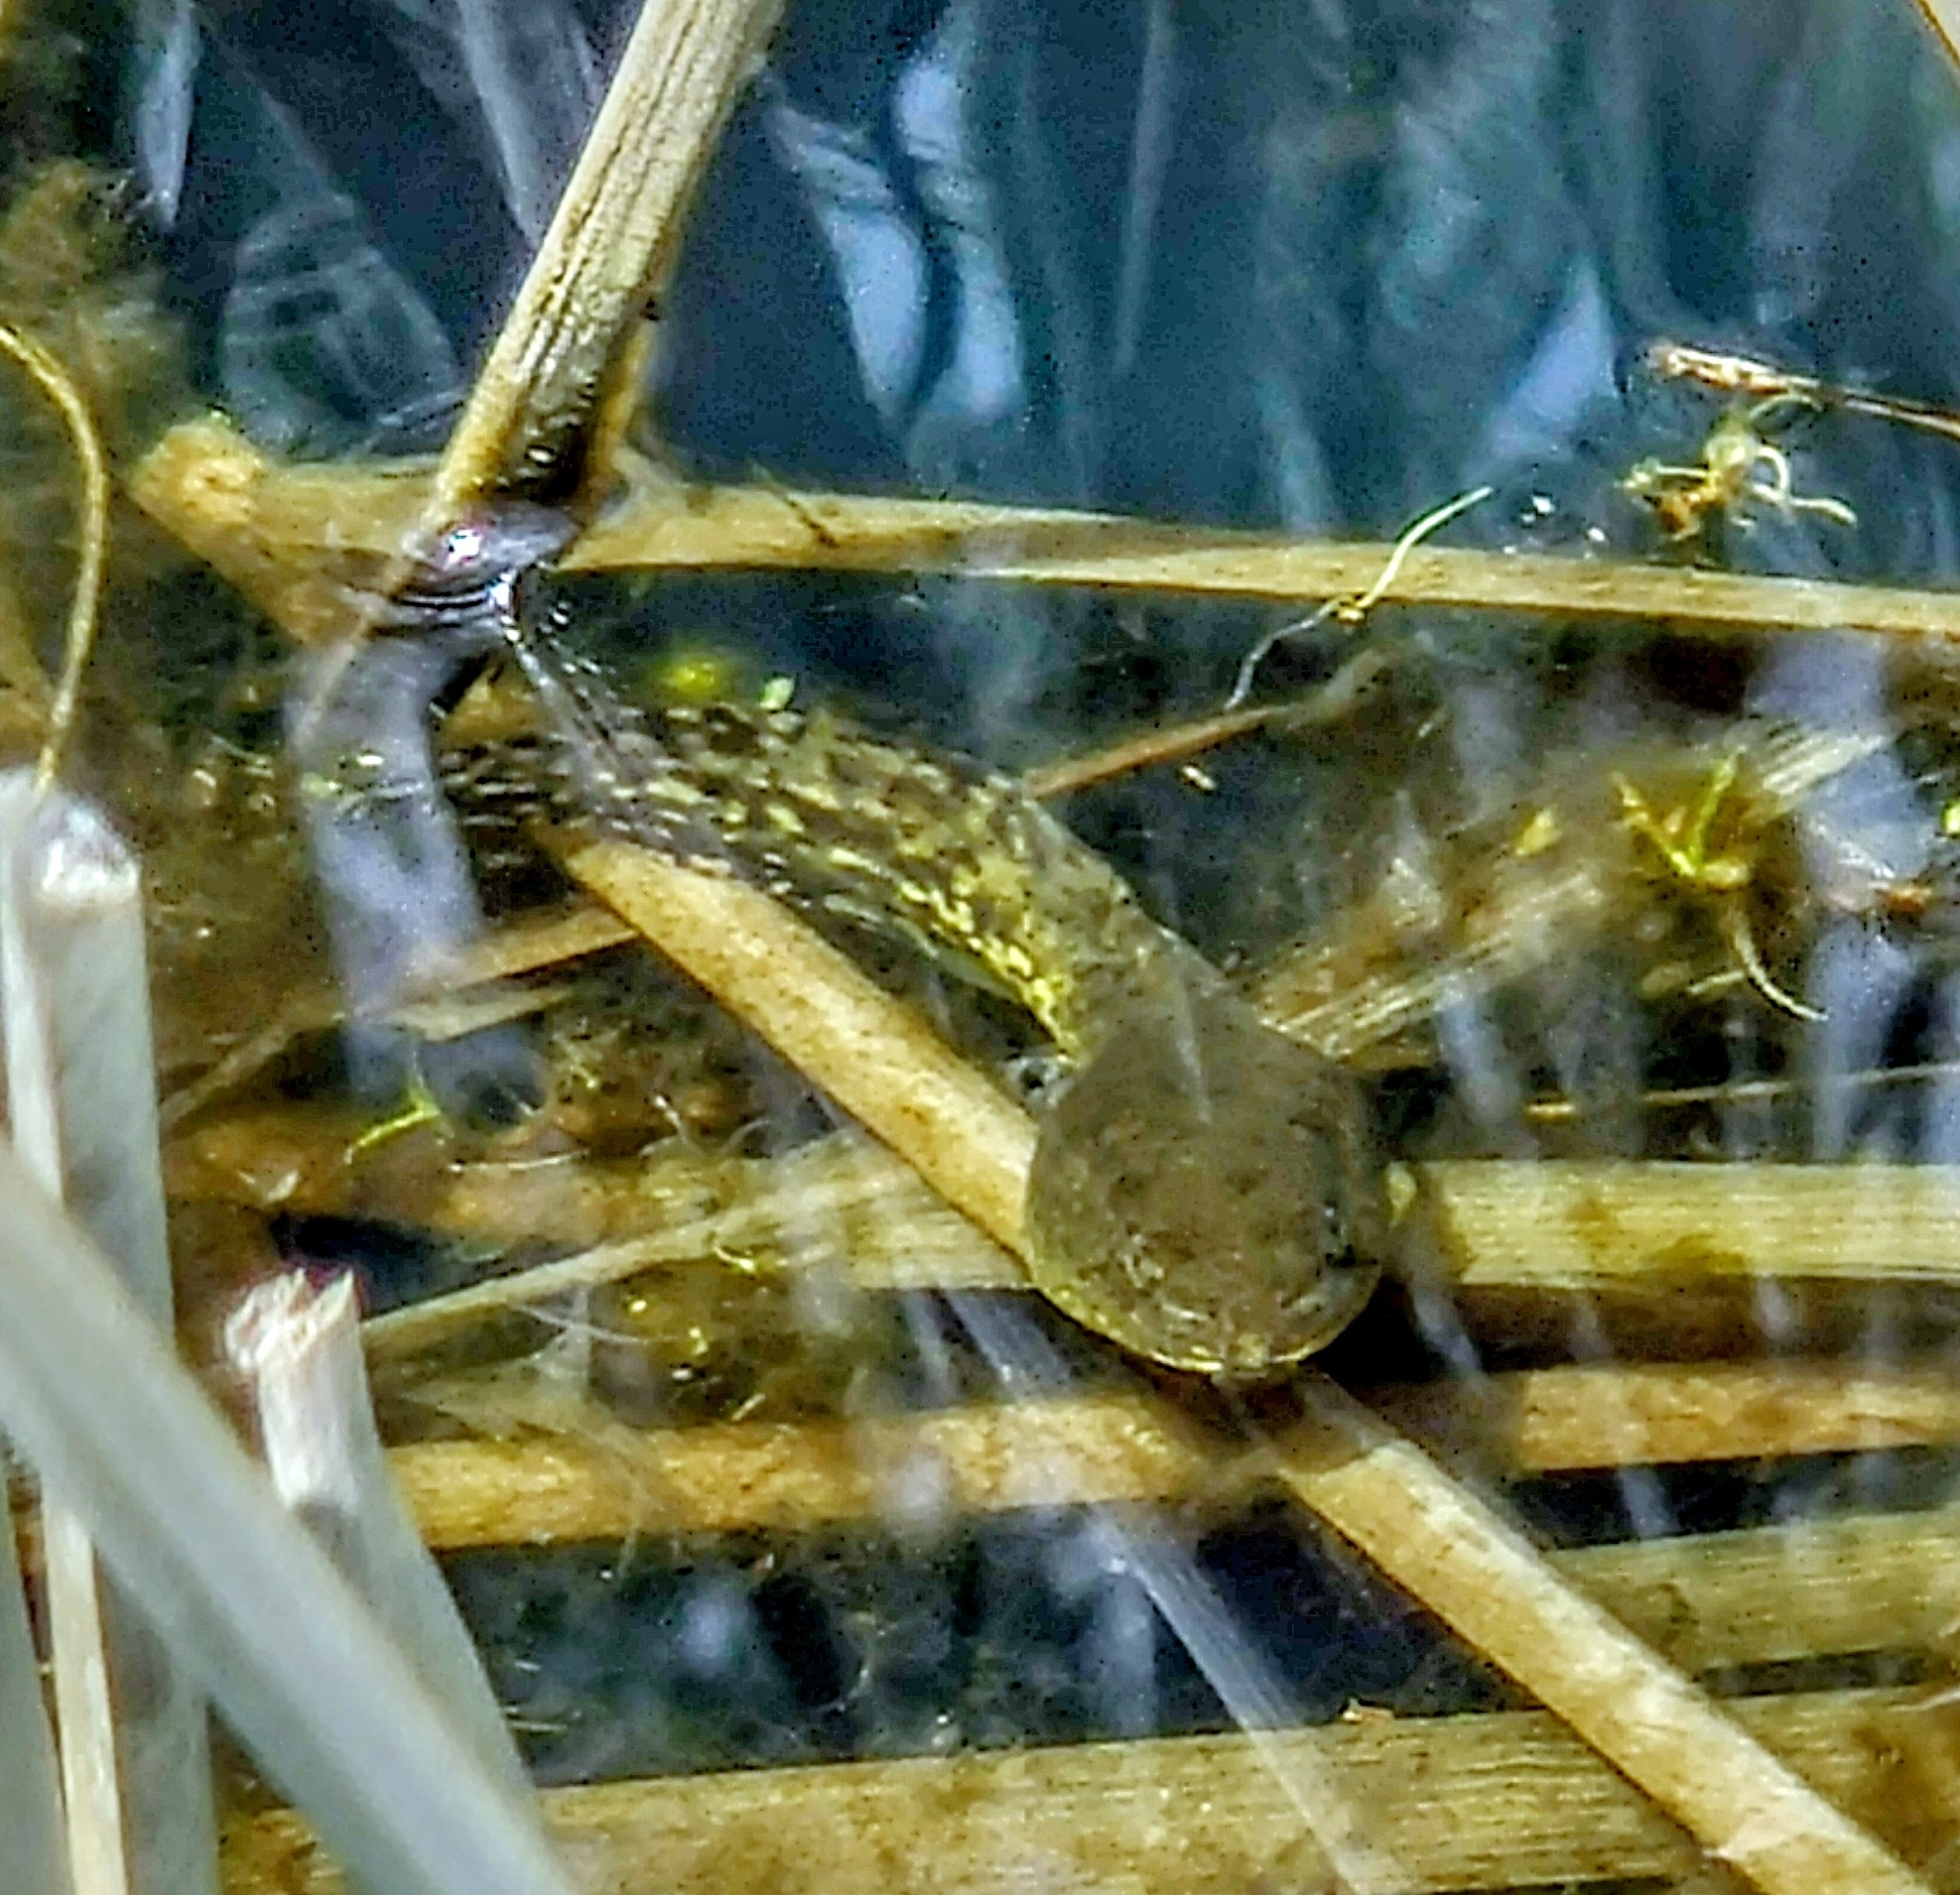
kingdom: Animalia
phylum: Chordata
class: Amphibia
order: Anura
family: Ranidae
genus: Lithobates
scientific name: Lithobates clamitans
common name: Green frog
